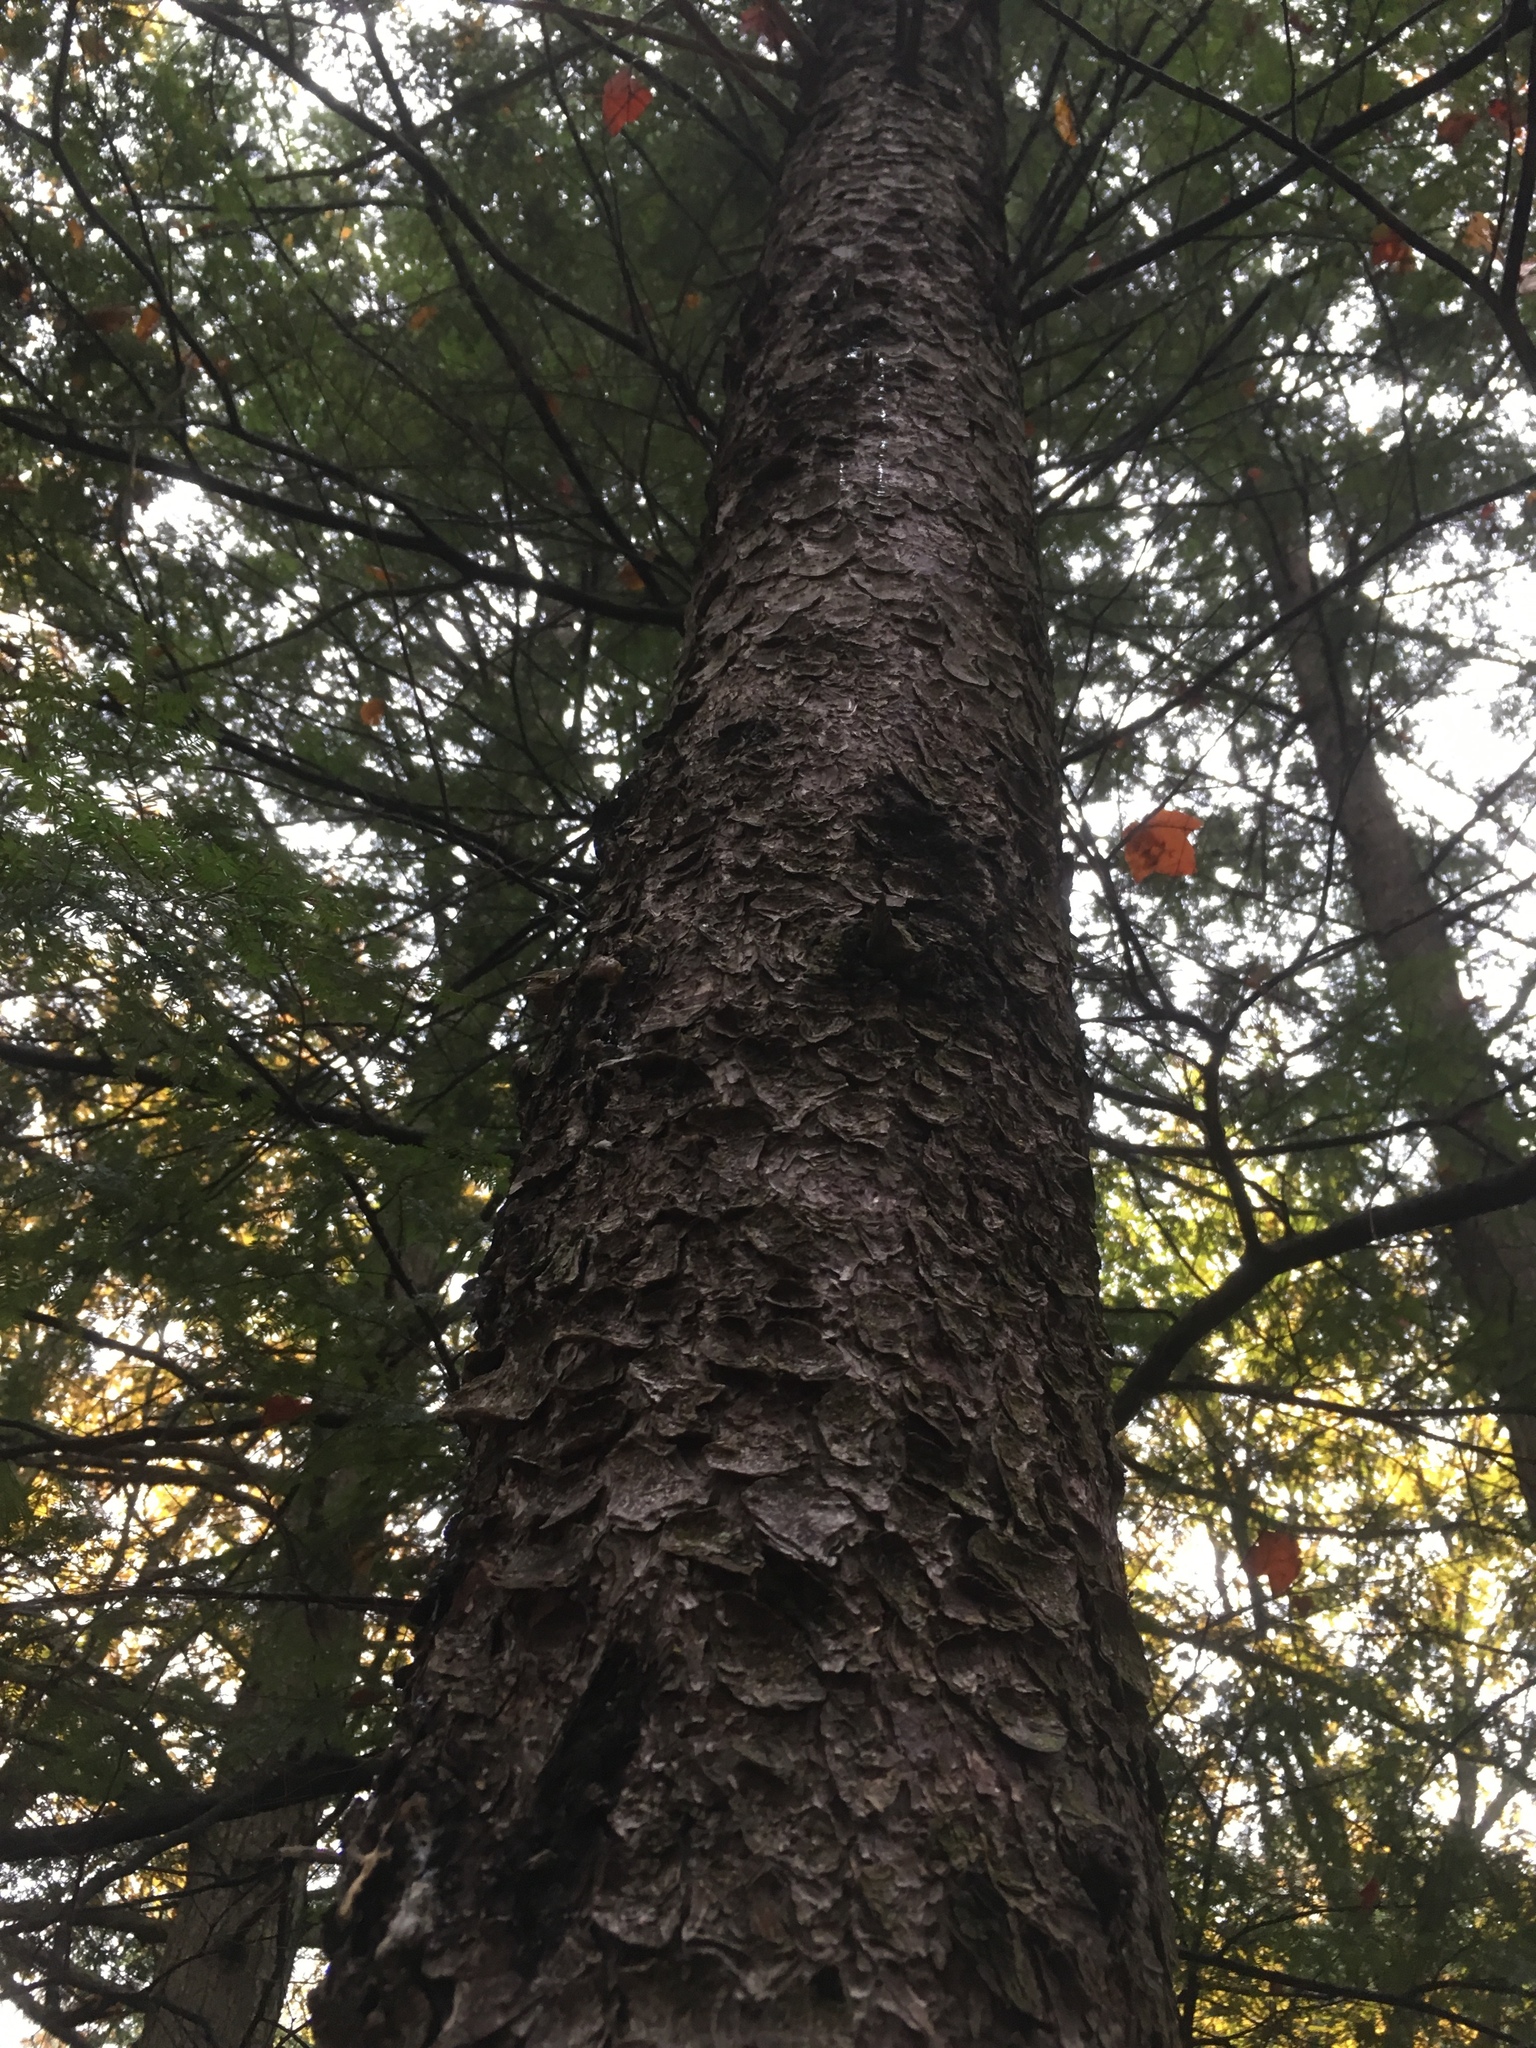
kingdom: Plantae
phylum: Tracheophyta
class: Pinopsida
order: Pinales
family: Pinaceae
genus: Picea
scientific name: Picea rubens
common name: Red spruce
